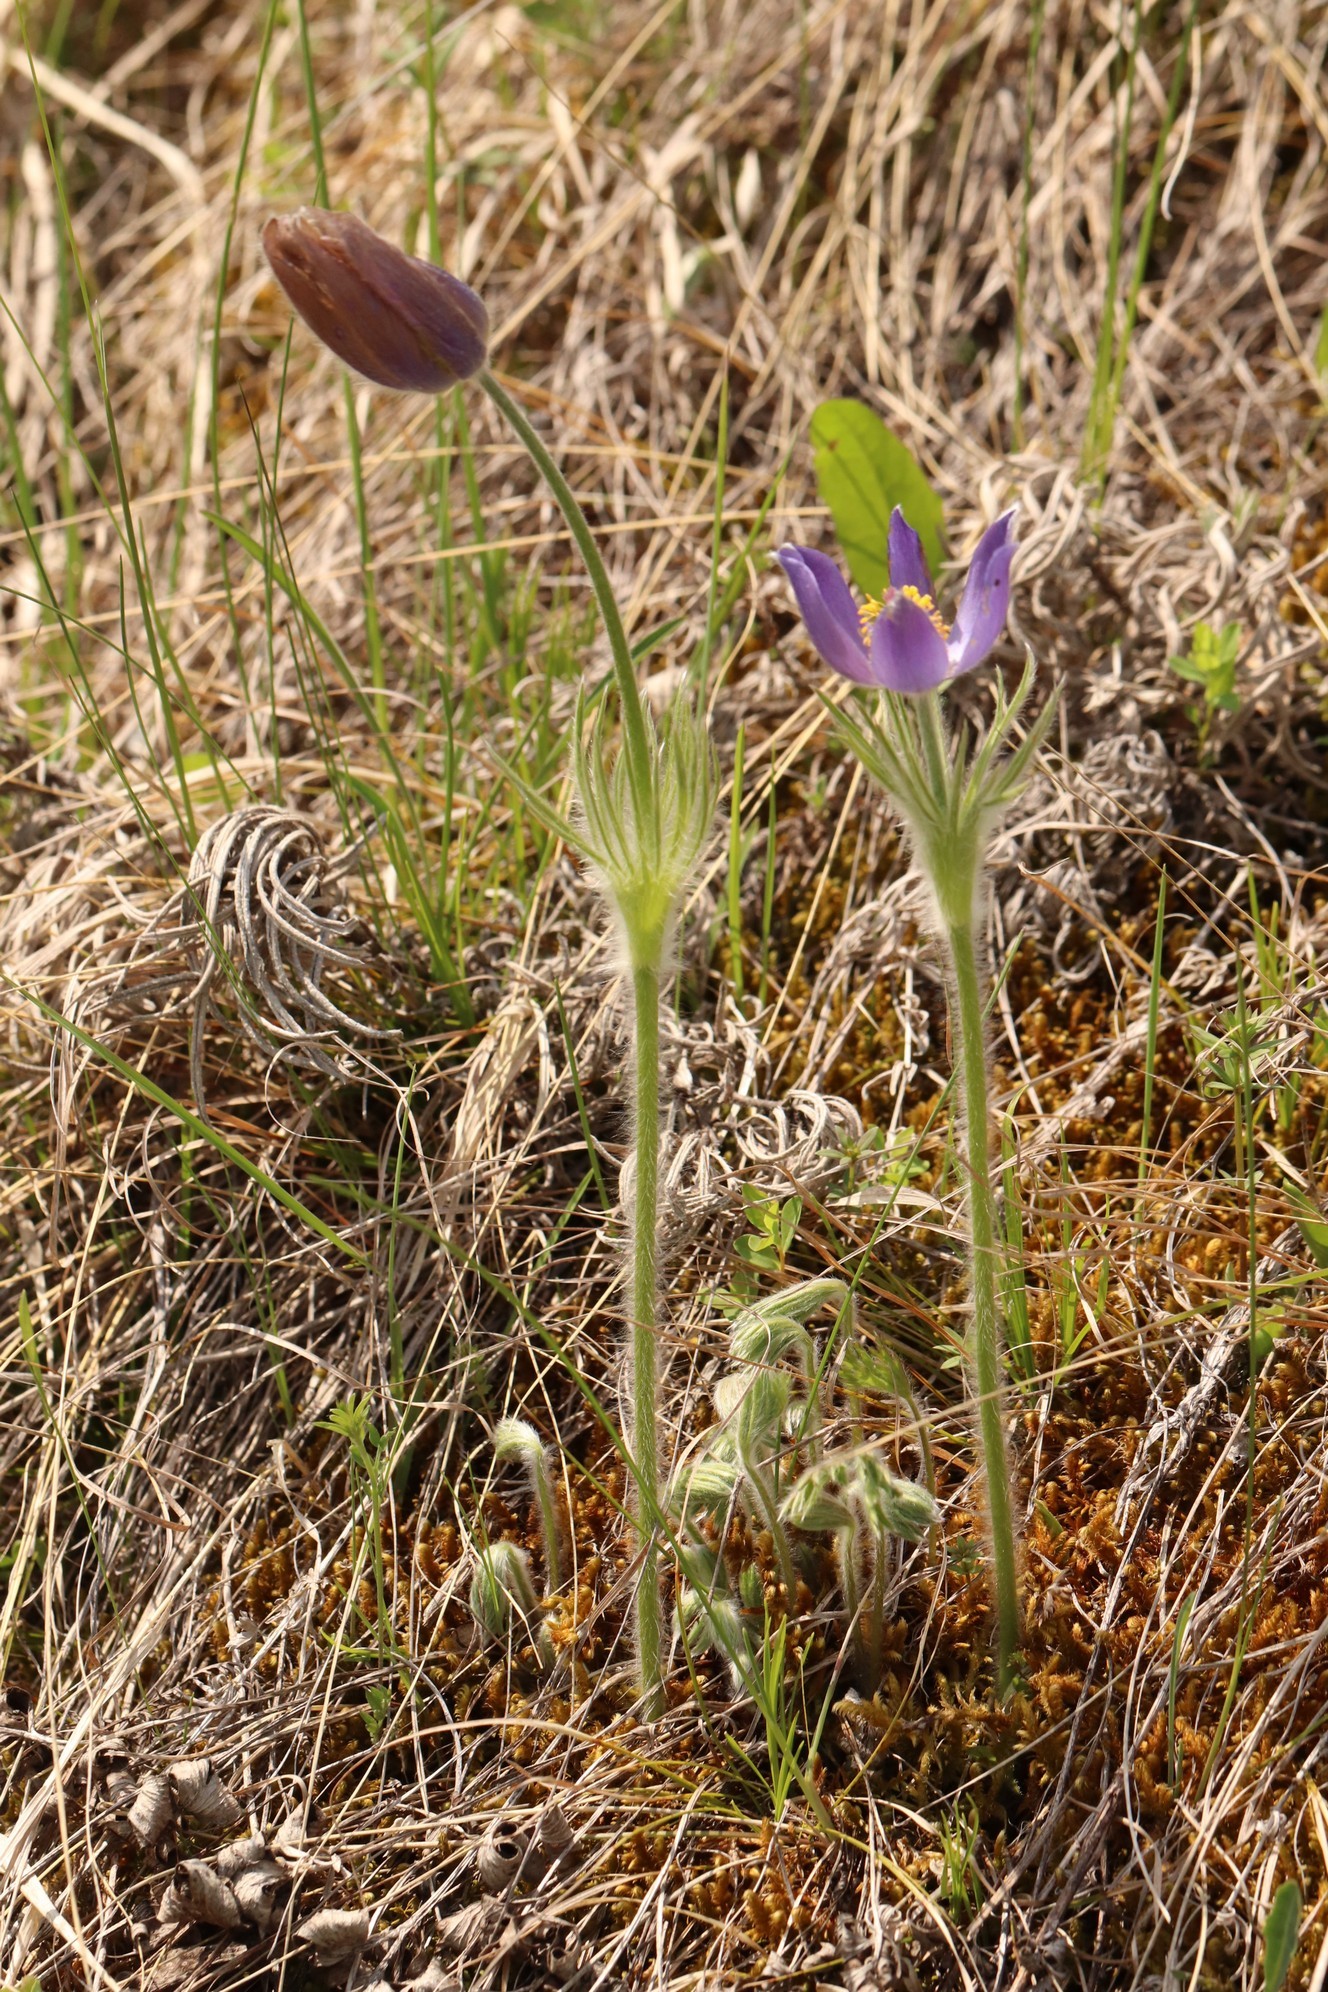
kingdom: Plantae
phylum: Tracheophyta
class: Magnoliopsida
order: Ranunculales
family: Ranunculaceae
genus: Pulsatilla
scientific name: Pulsatilla patens
